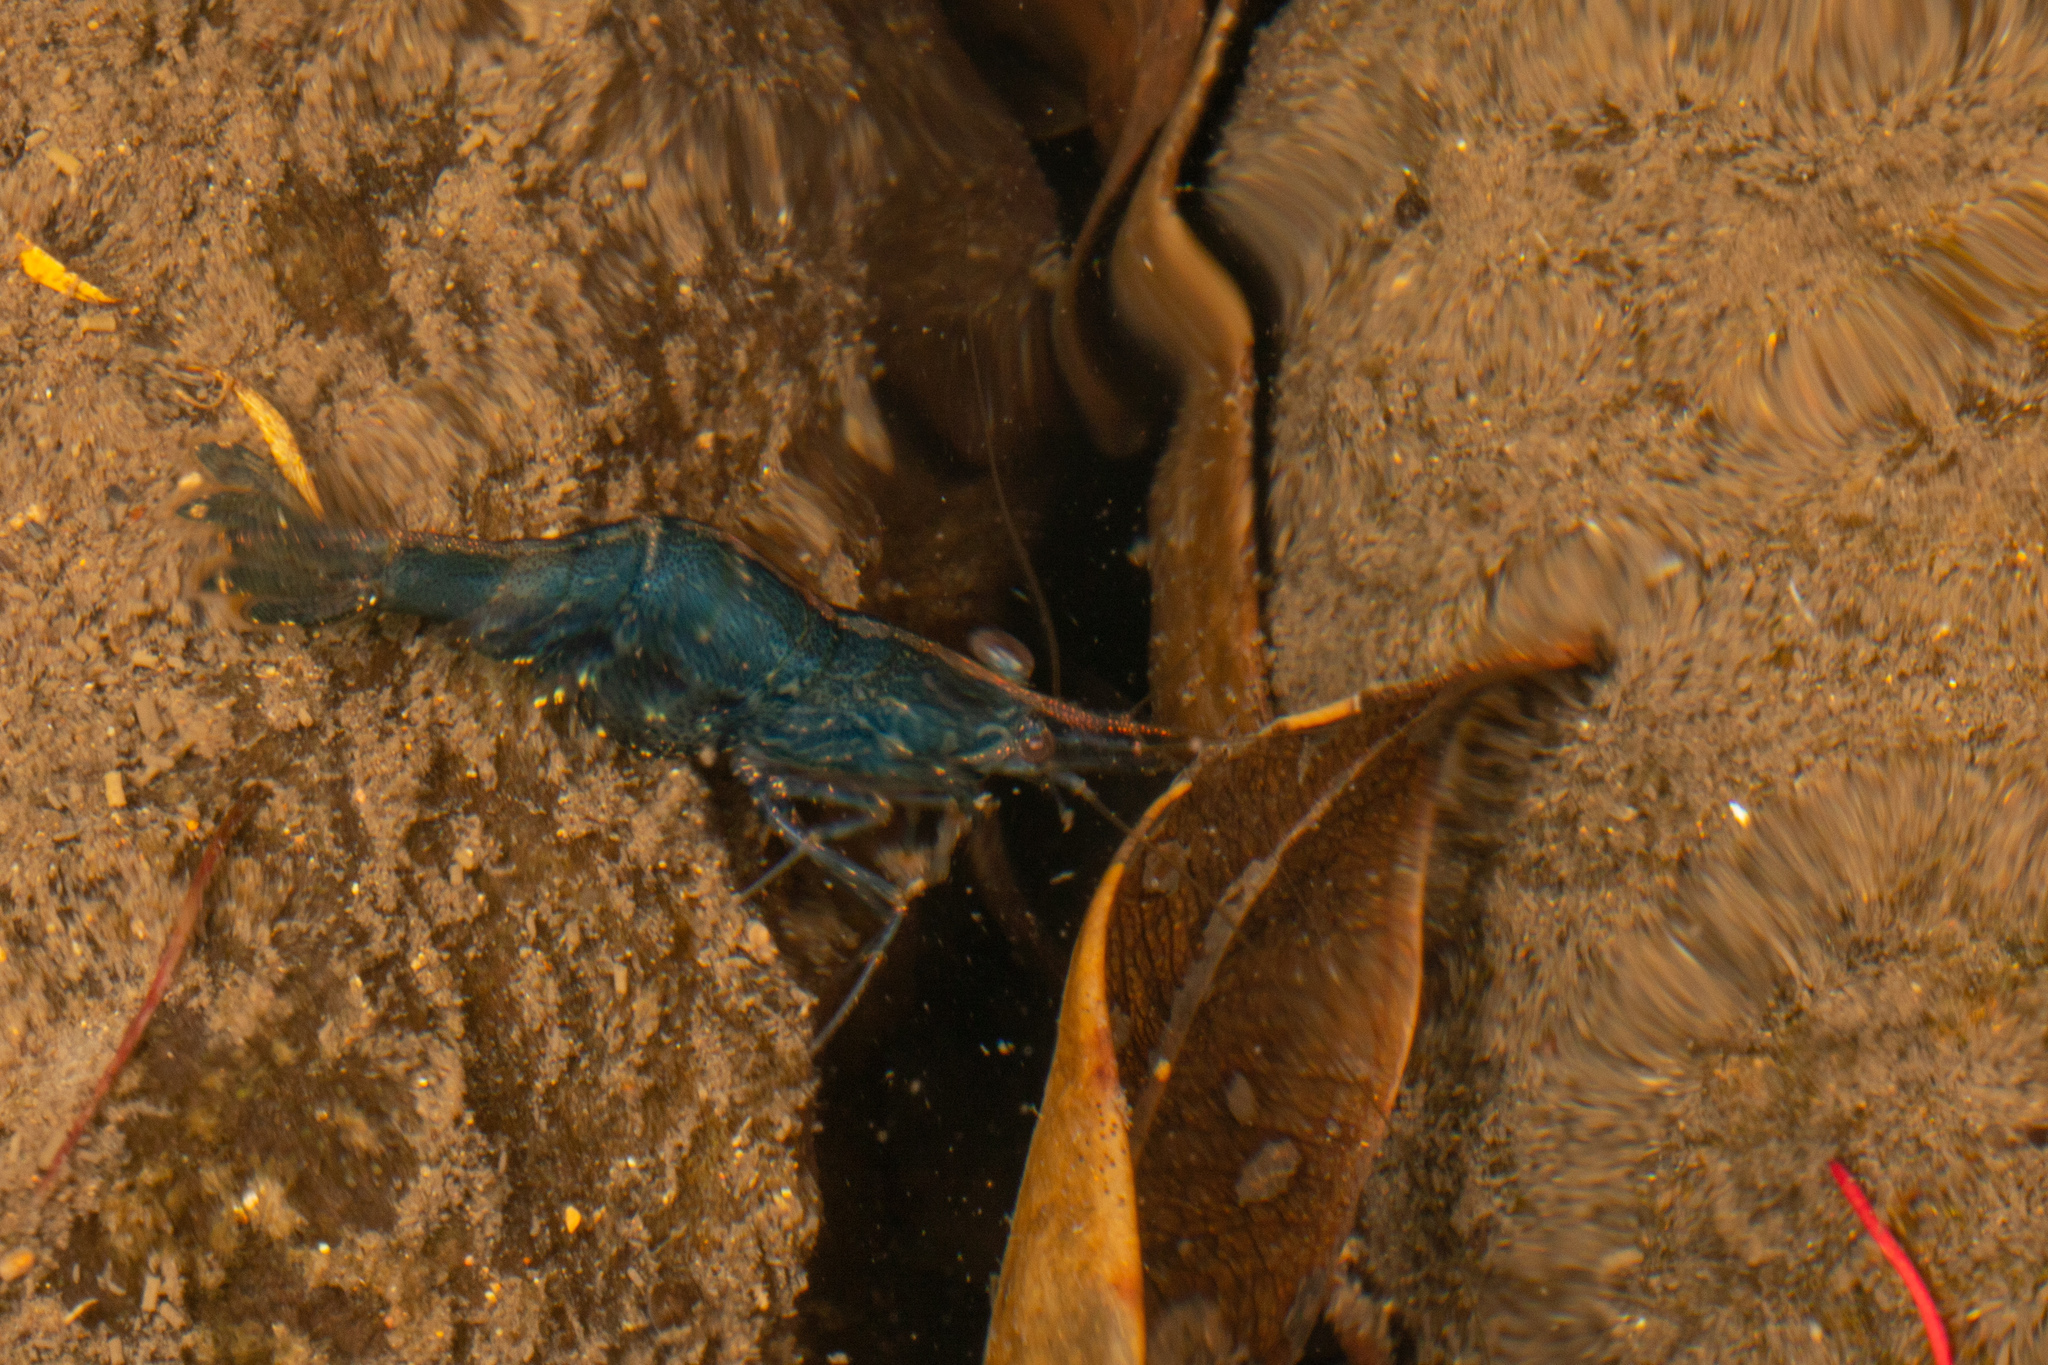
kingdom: Animalia
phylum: Arthropoda
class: Malacostraca
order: Decapoda
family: Atyidae
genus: Paratya
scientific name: Paratya curvirostris
